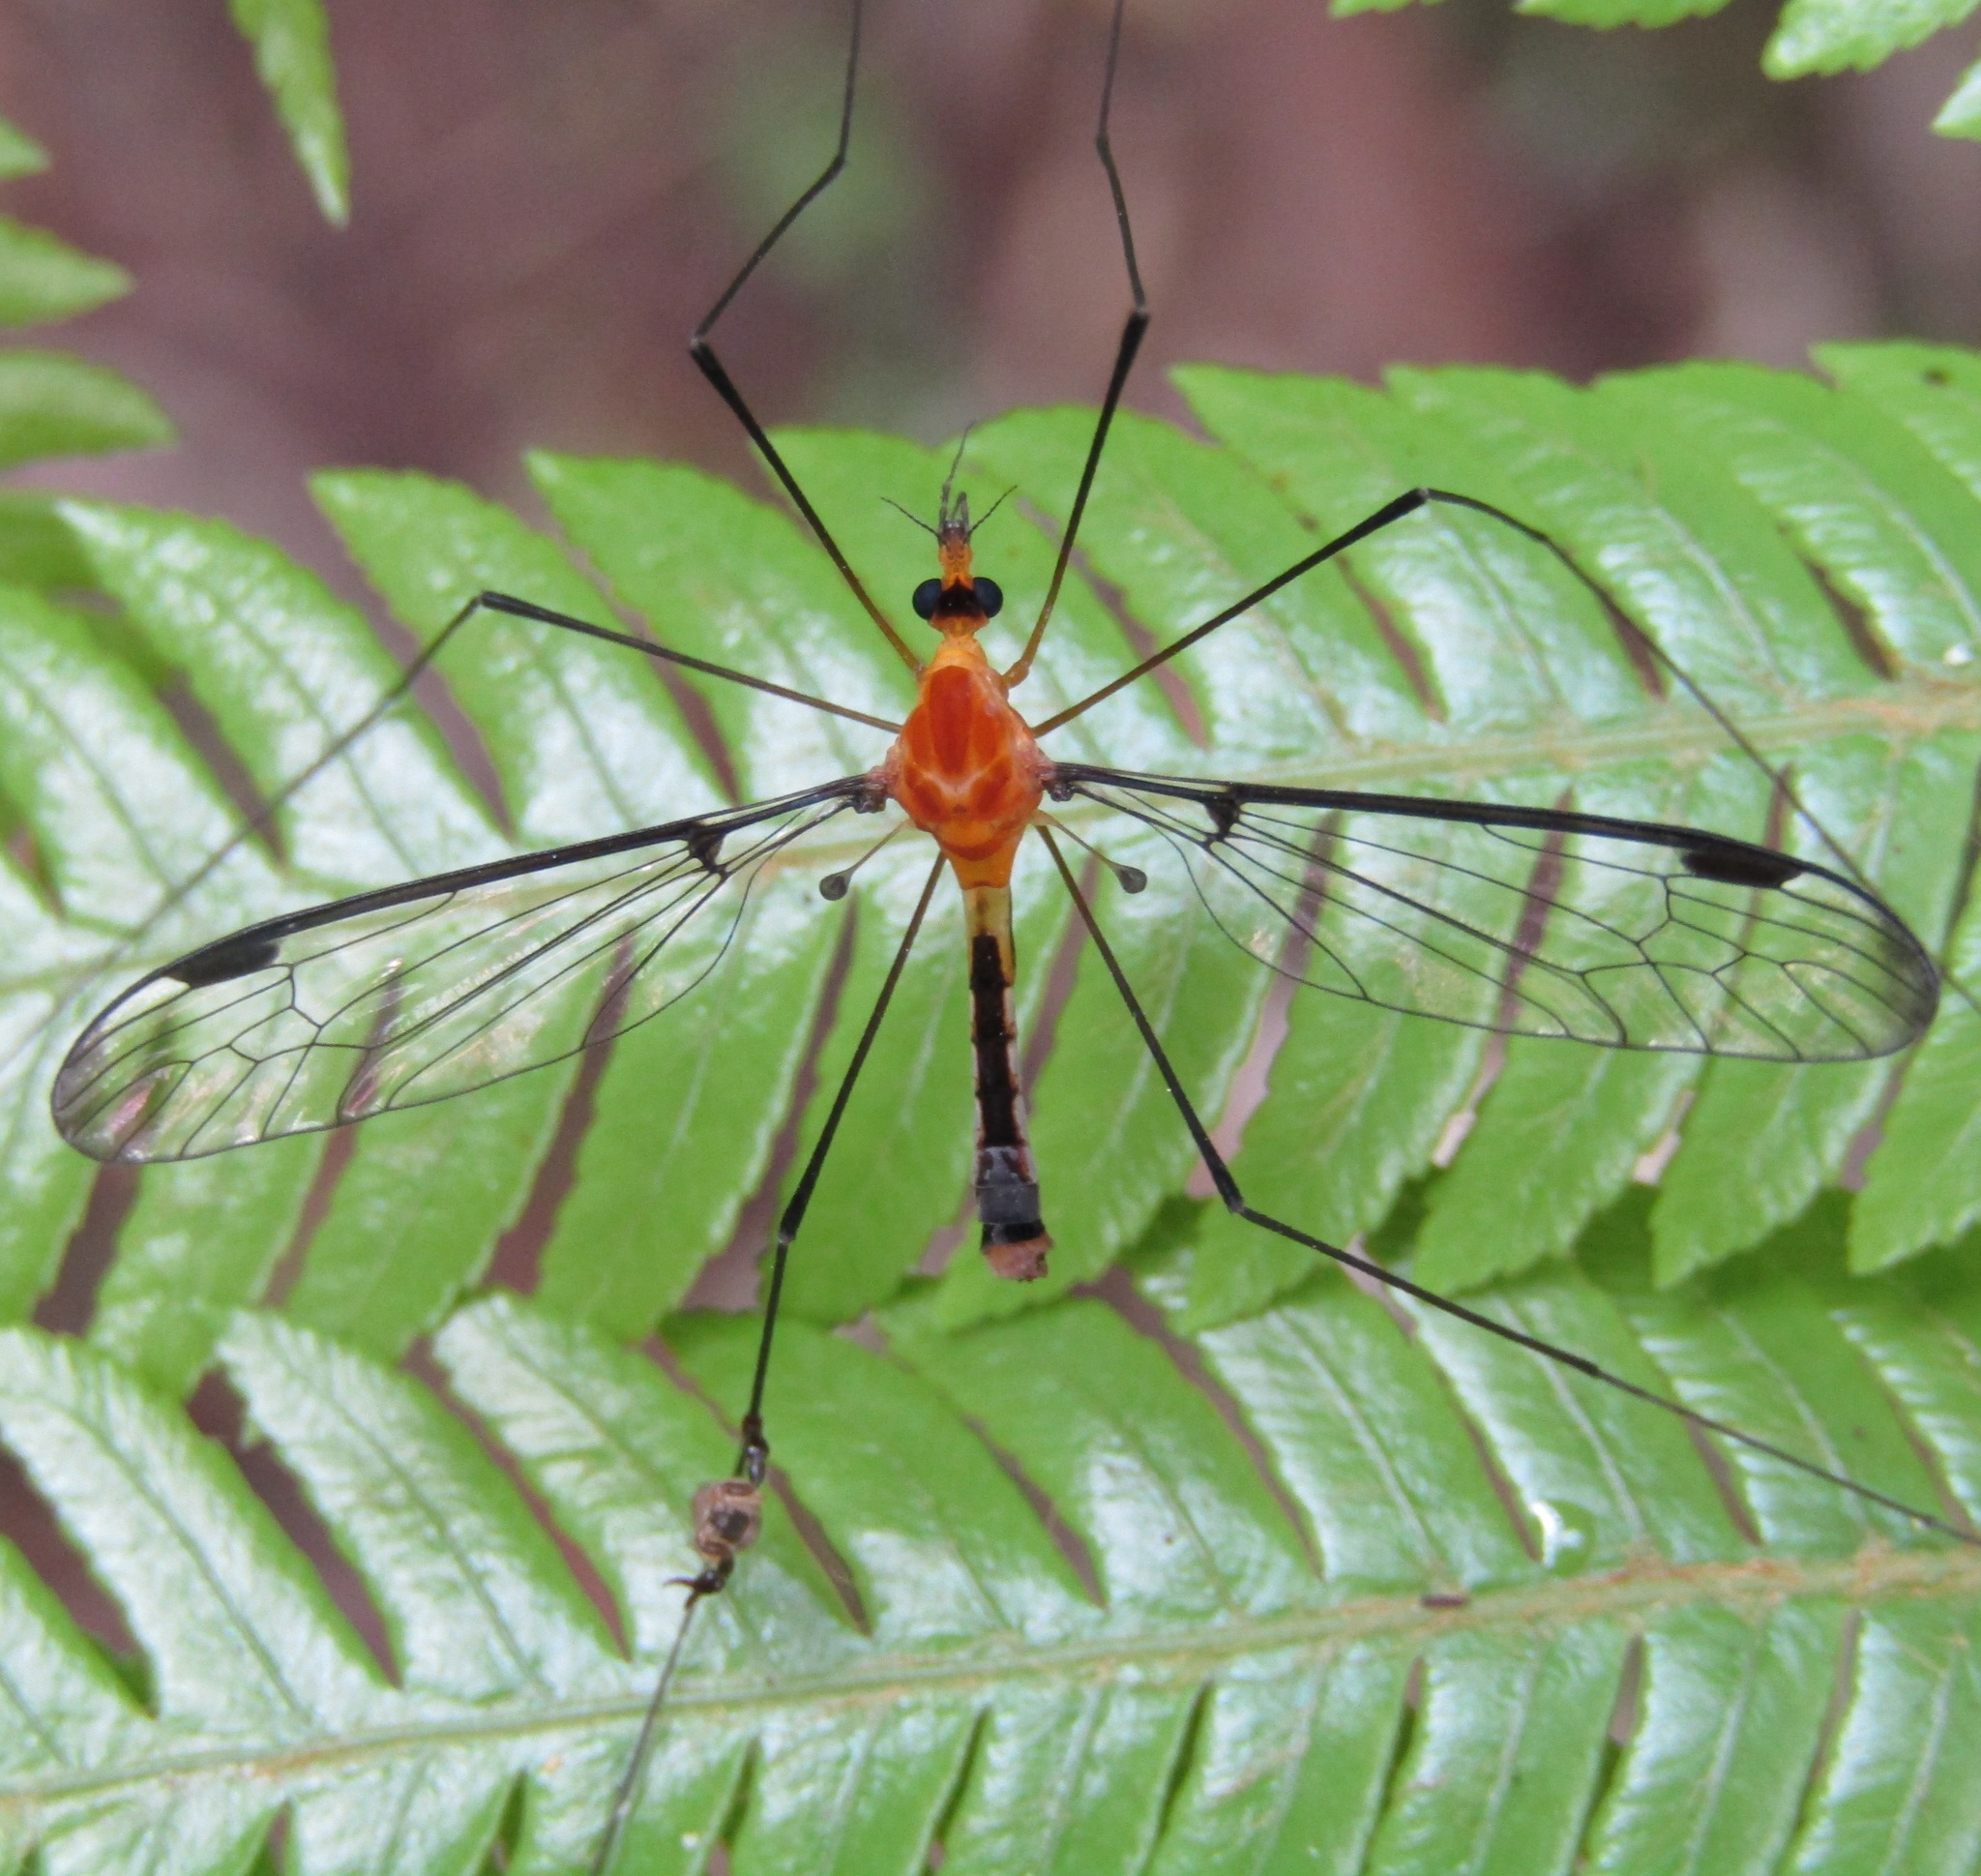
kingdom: Animalia
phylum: Arthropoda
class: Insecta
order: Diptera
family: Tipulidae
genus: Aurotipula
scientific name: Aurotipula
